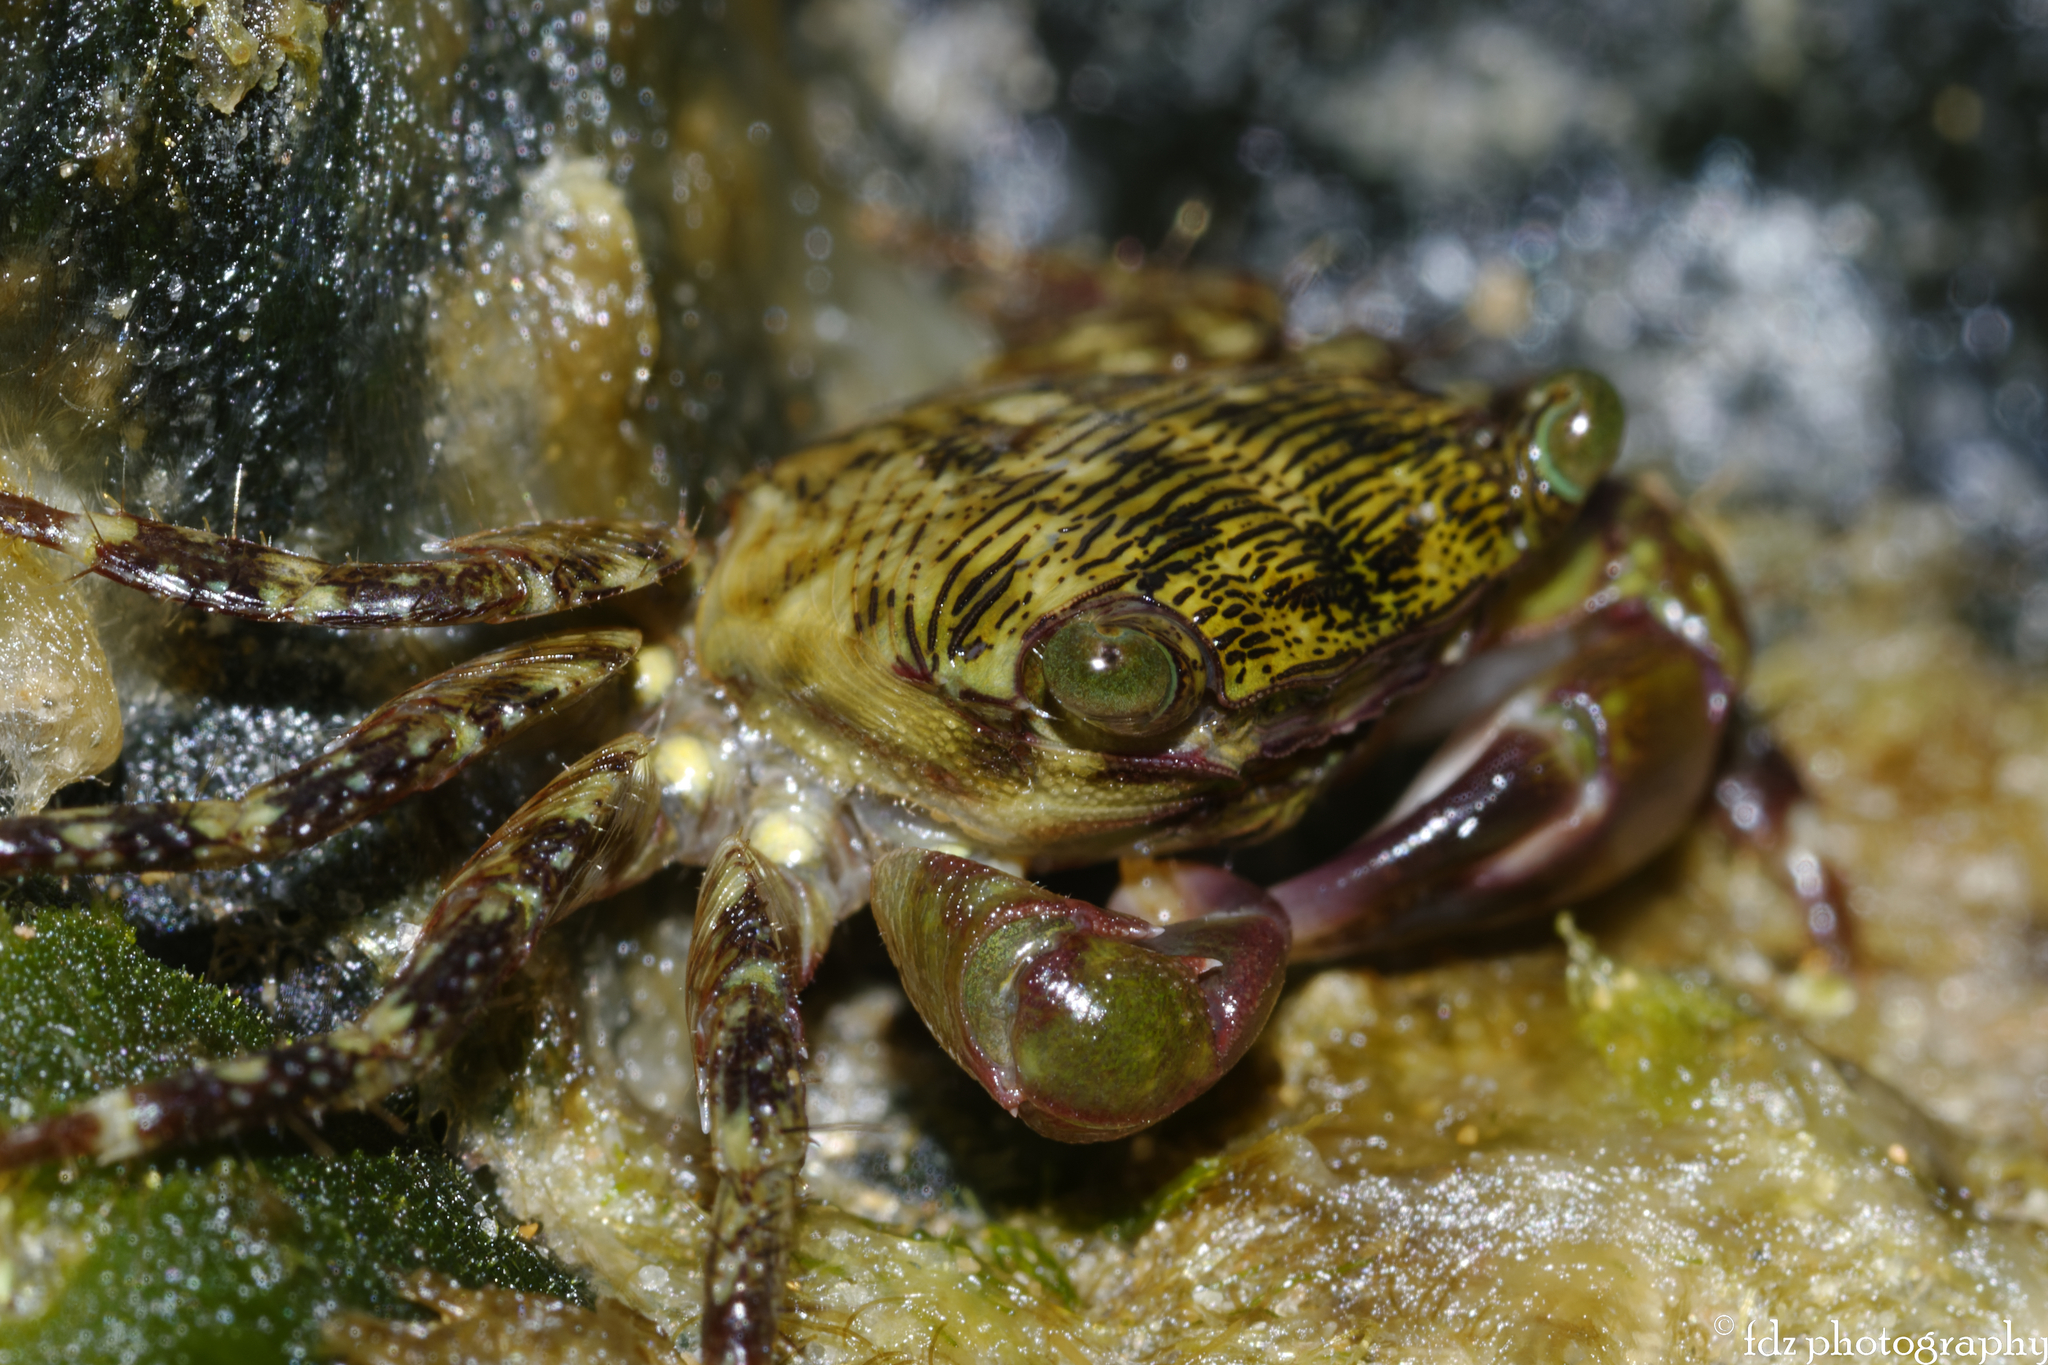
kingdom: Animalia
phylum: Arthropoda
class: Malacostraca
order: Decapoda
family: Grapsidae
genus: Pachygrapsus
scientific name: Pachygrapsus transversus
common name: Mottled shore crab
